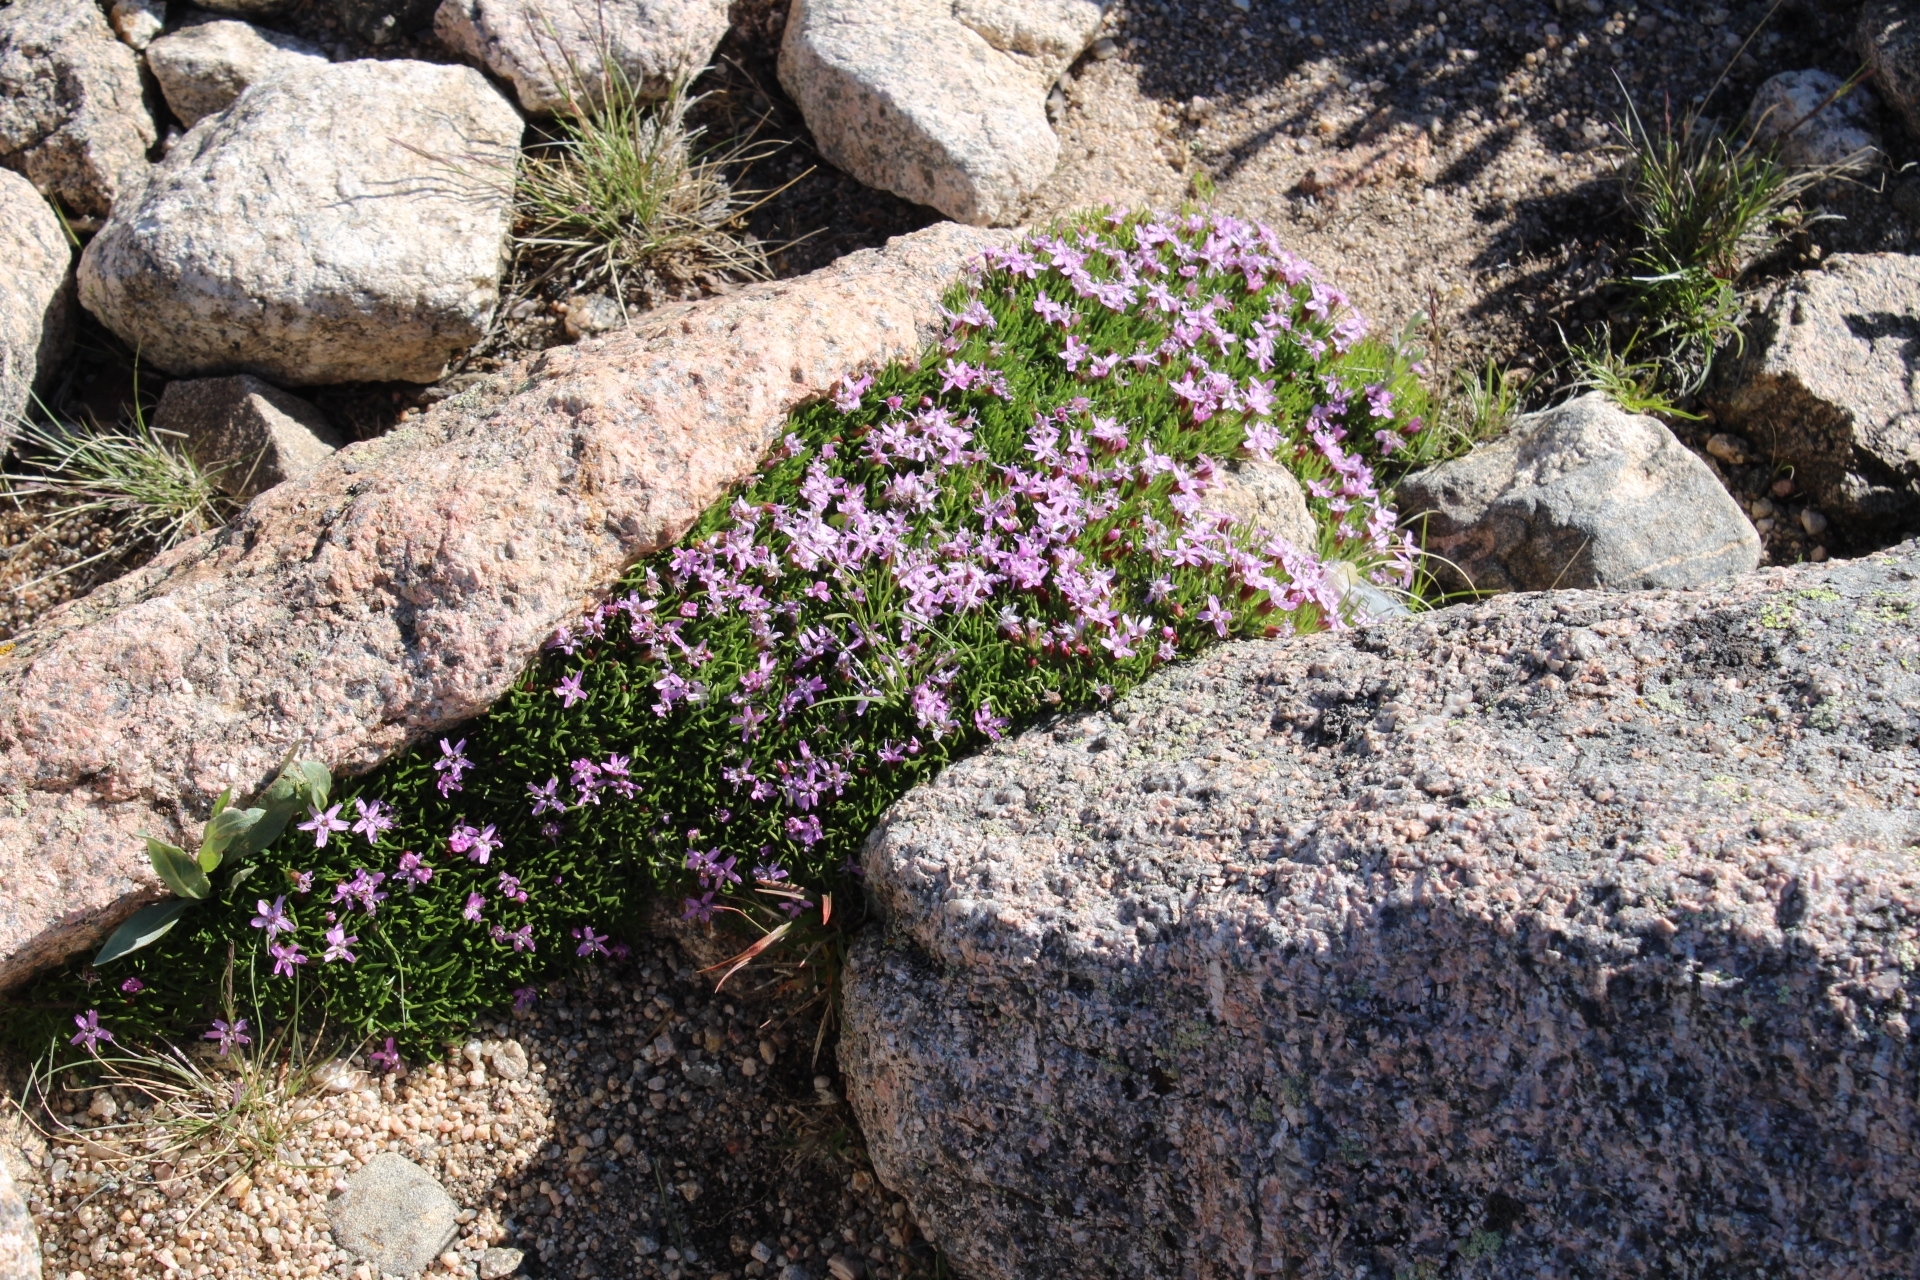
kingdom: Plantae
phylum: Tracheophyta
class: Magnoliopsida
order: Caryophyllales
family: Caryophyllaceae
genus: Silene
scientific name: Silene acaulis
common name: Moss campion
